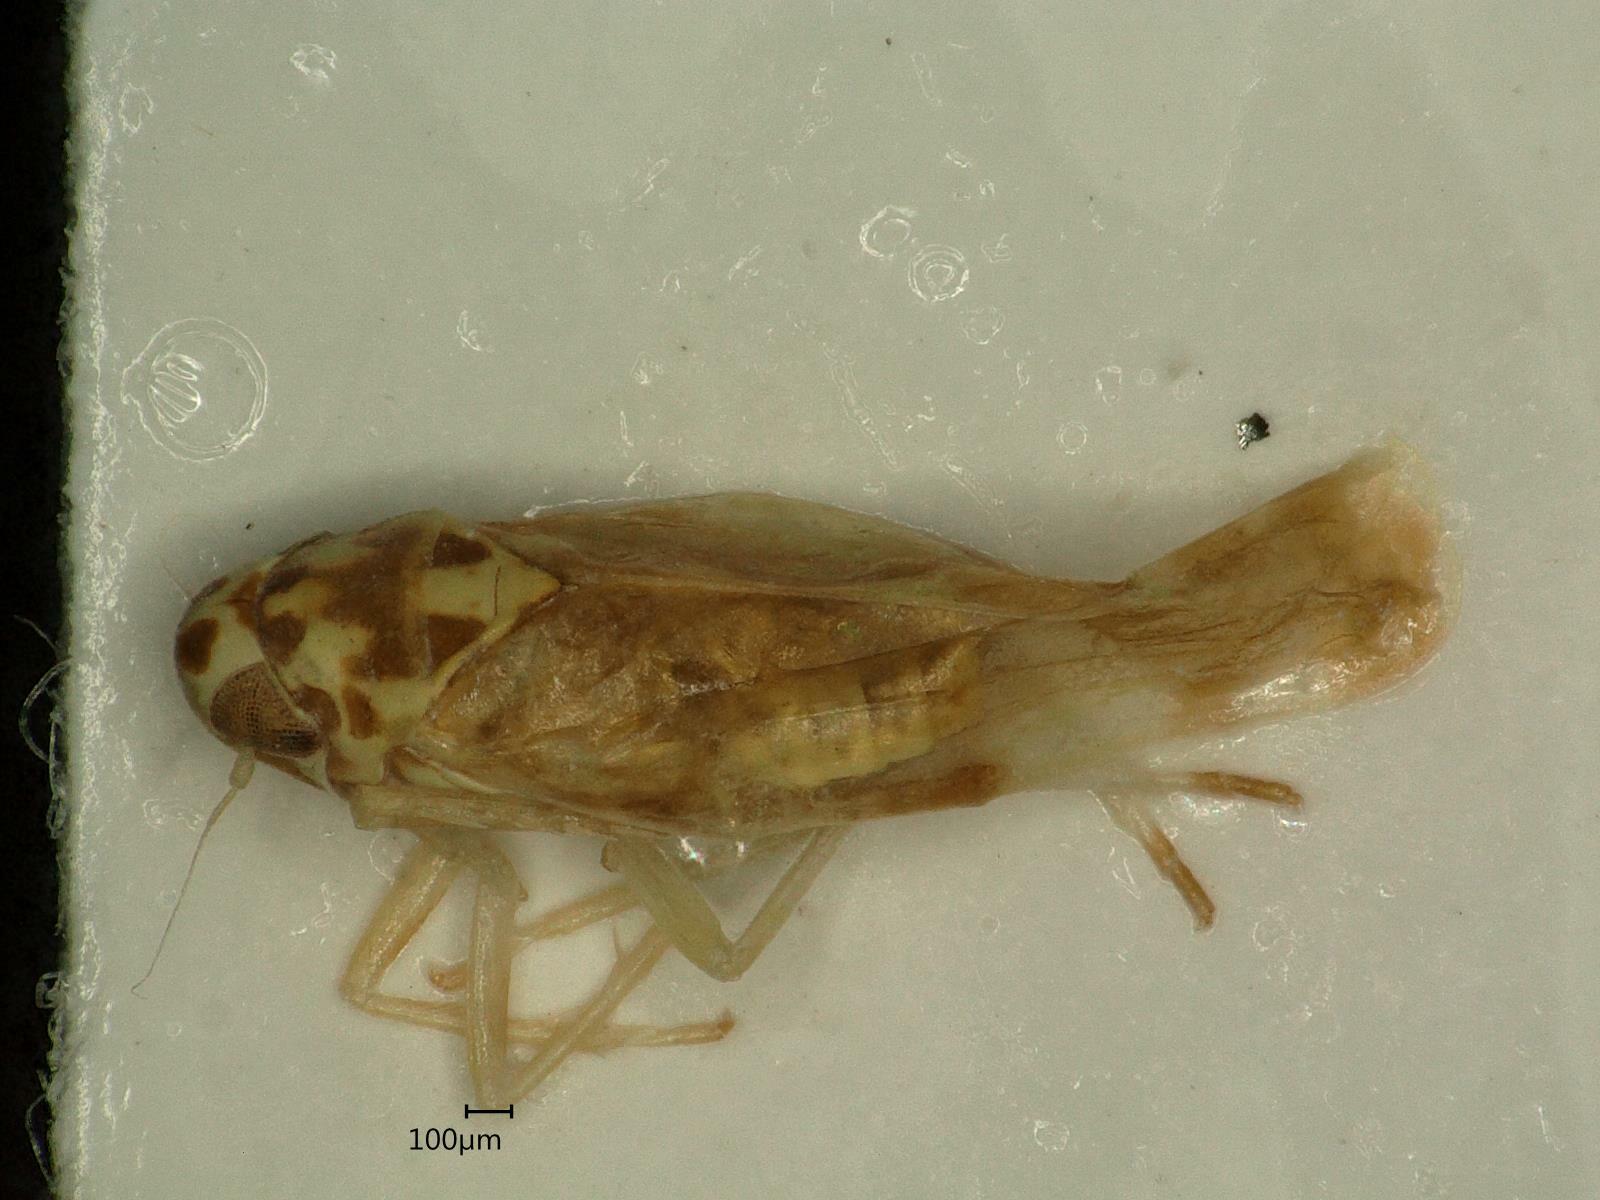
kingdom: Animalia
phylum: Arthropoda
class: Insecta
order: Hemiptera
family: Cicadellidae
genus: Eupteryx
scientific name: Eupteryx calcarata
